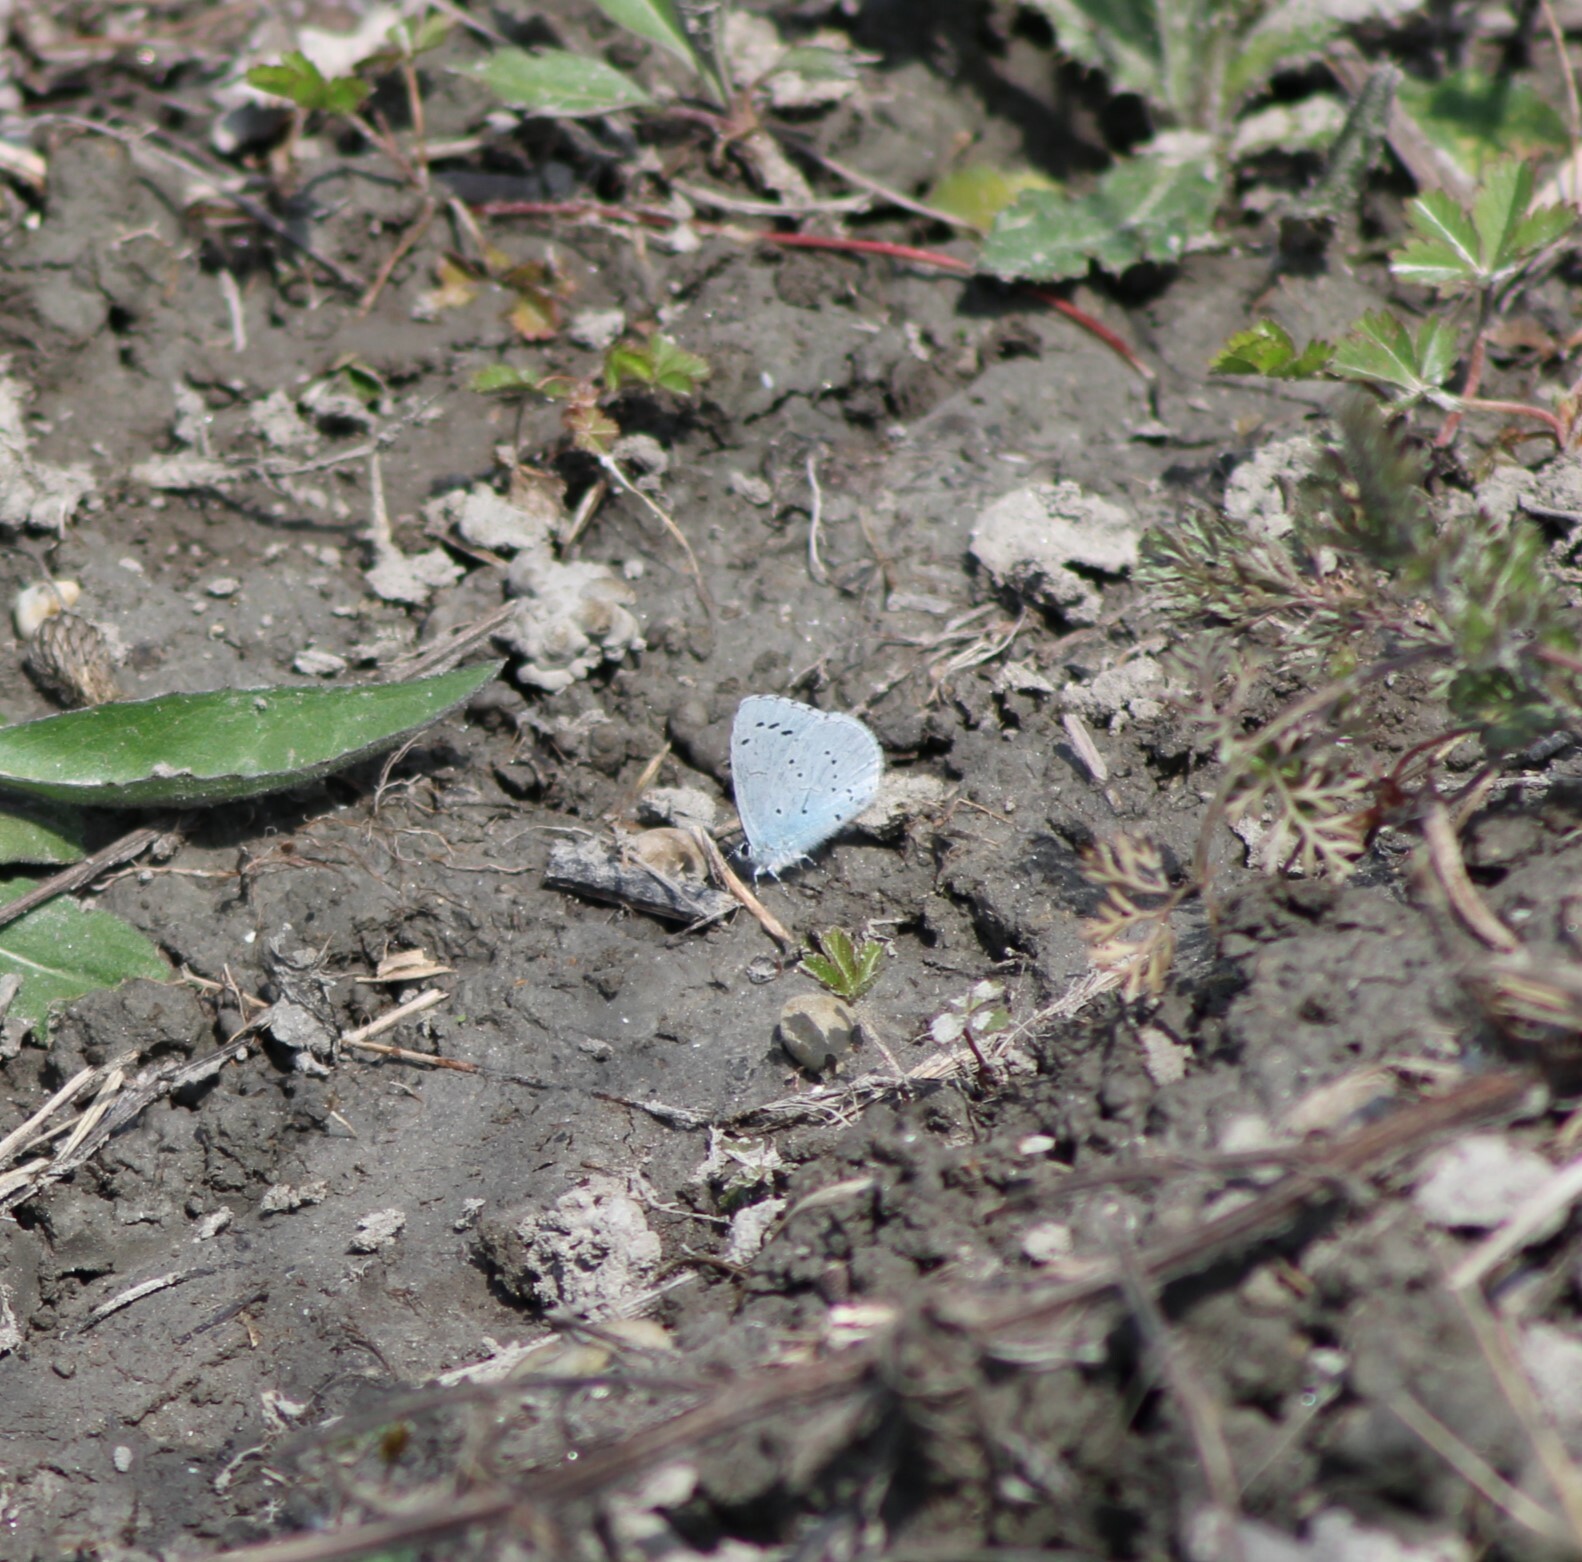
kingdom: Animalia
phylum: Arthropoda
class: Insecta
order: Lepidoptera
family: Lycaenidae
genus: Celastrina
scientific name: Celastrina argiolus
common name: Holly blue
